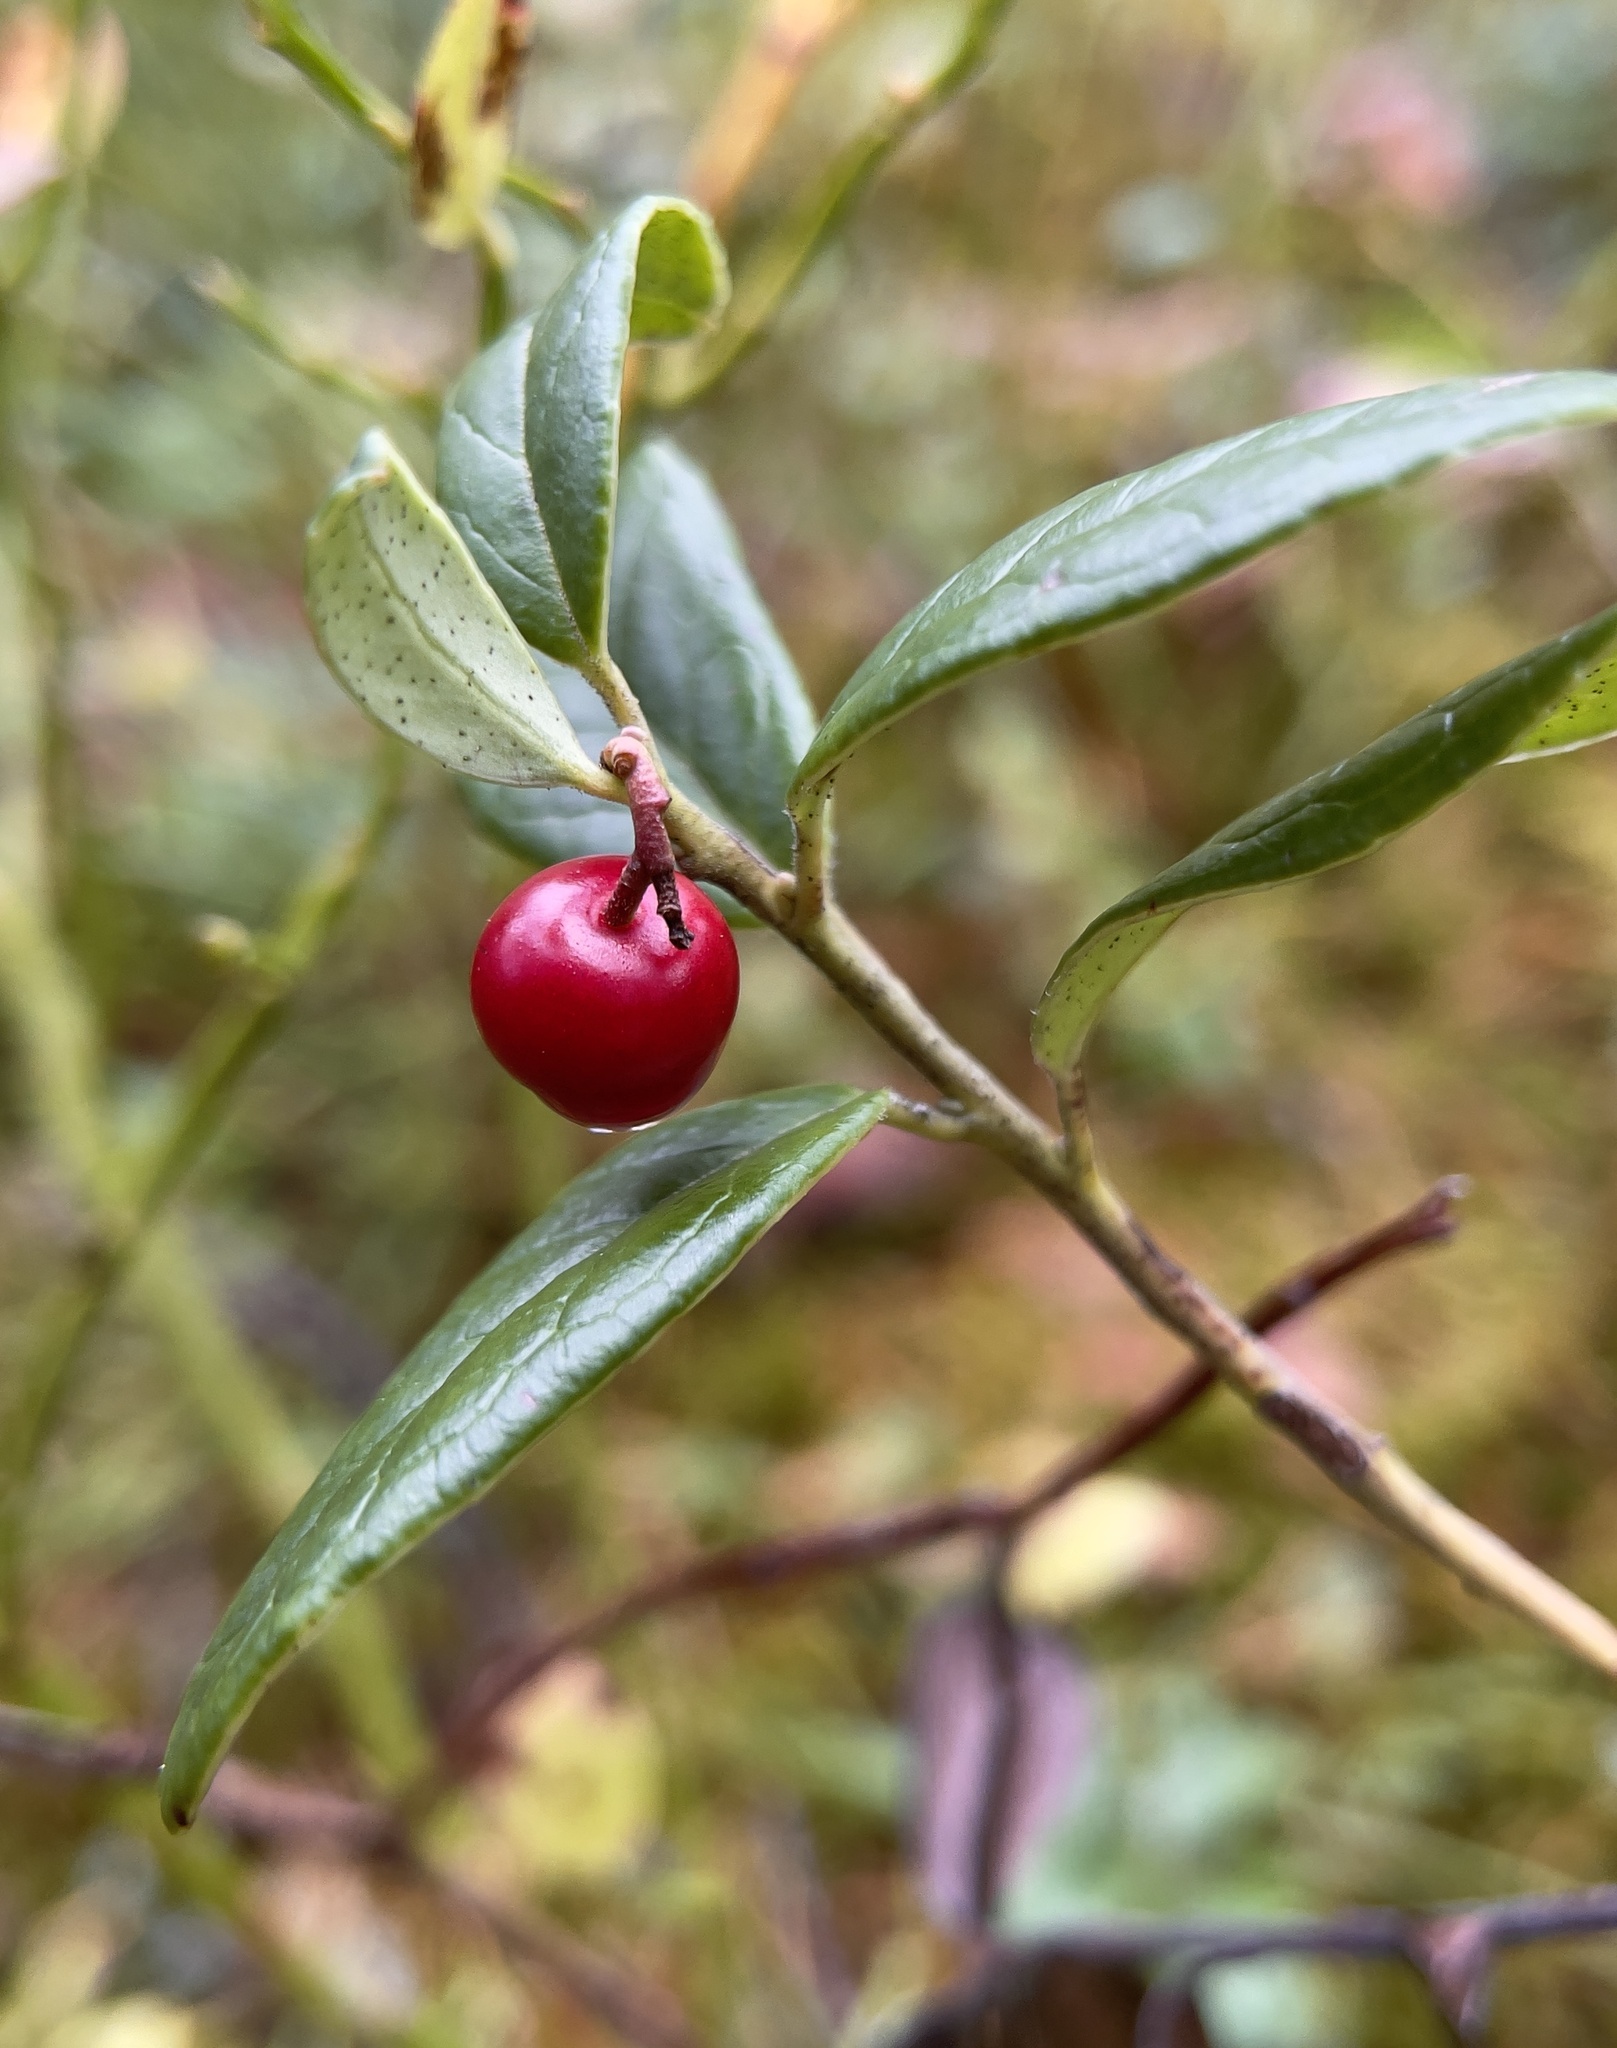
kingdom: Plantae
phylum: Tracheophyta
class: Magnoliopsida
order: Ericales
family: Ericaceae
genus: Vaccinium
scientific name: Vaccinium vitis-idaea
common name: Cowberry
